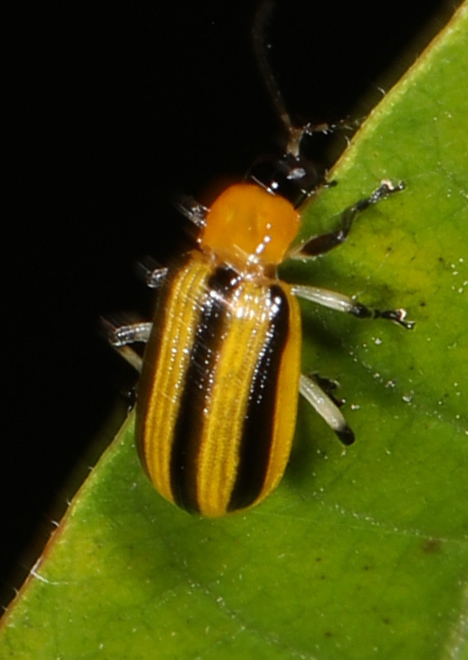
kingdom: Animalia
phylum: Arthropoda
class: Insecta
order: Coleoptera
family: Chrysomelidae
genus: Acalymma
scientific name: Acalymma vittatum
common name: Striped cucumber beetle
